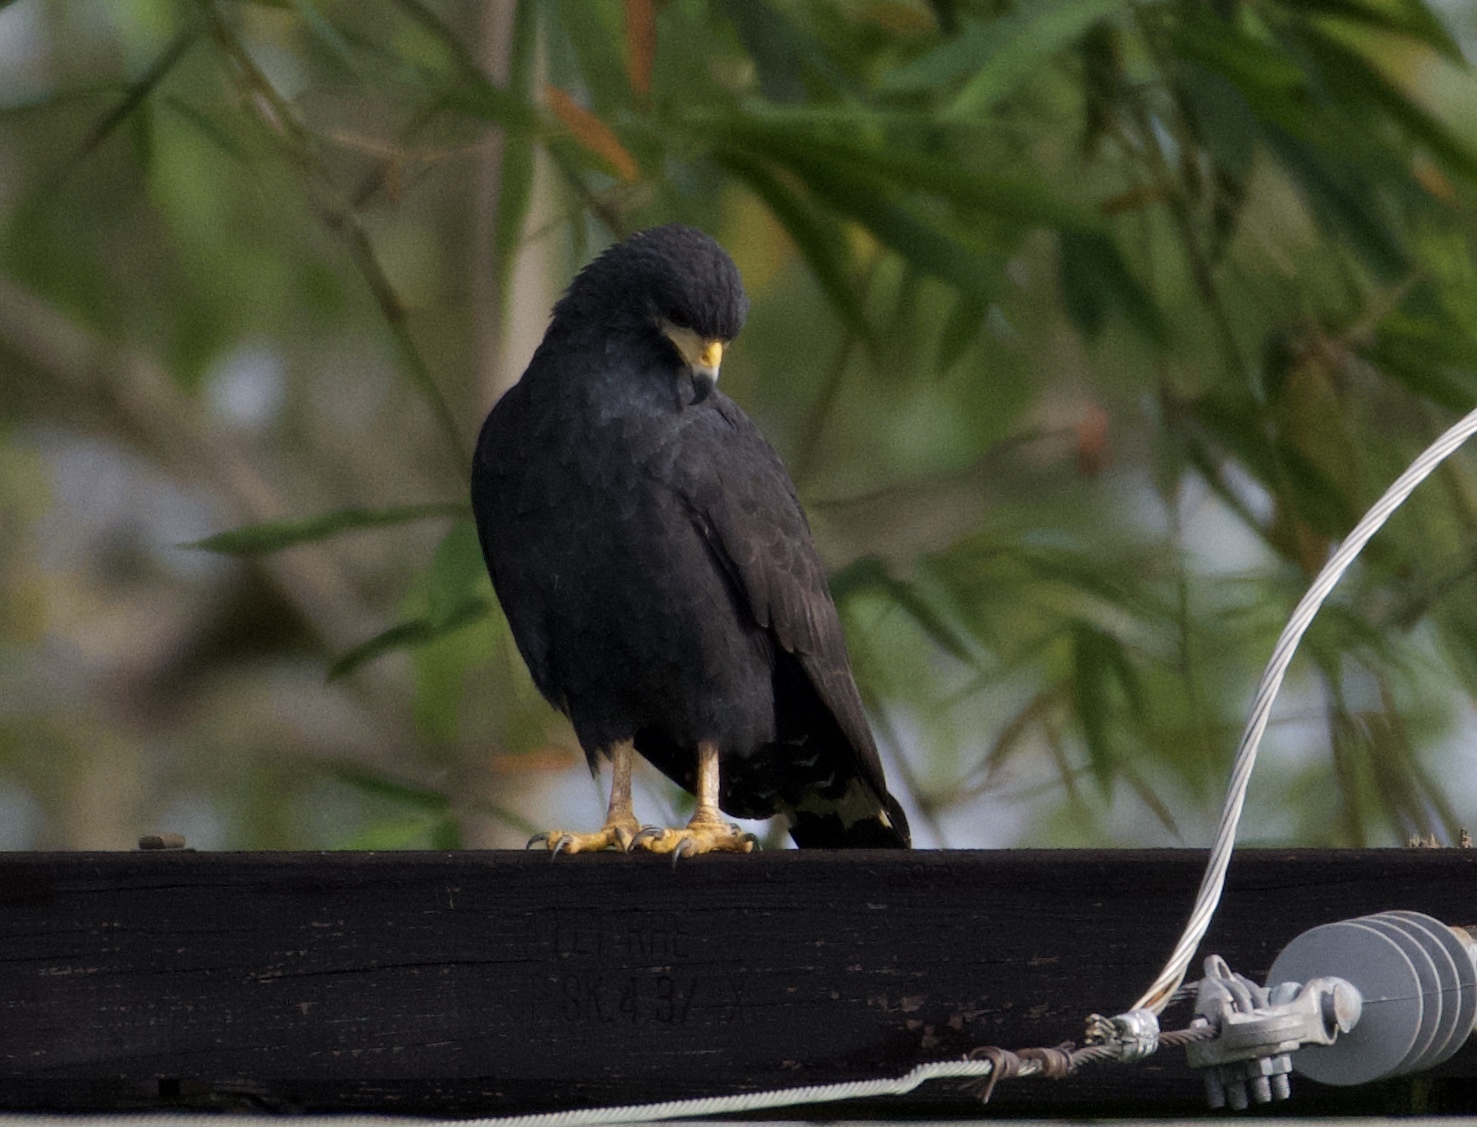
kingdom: Animalia
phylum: Chordata
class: Aves
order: Accipitriformes
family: Accipitridae
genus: Buteogallus
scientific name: Buteogallus anthracinus
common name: Common black hawk
